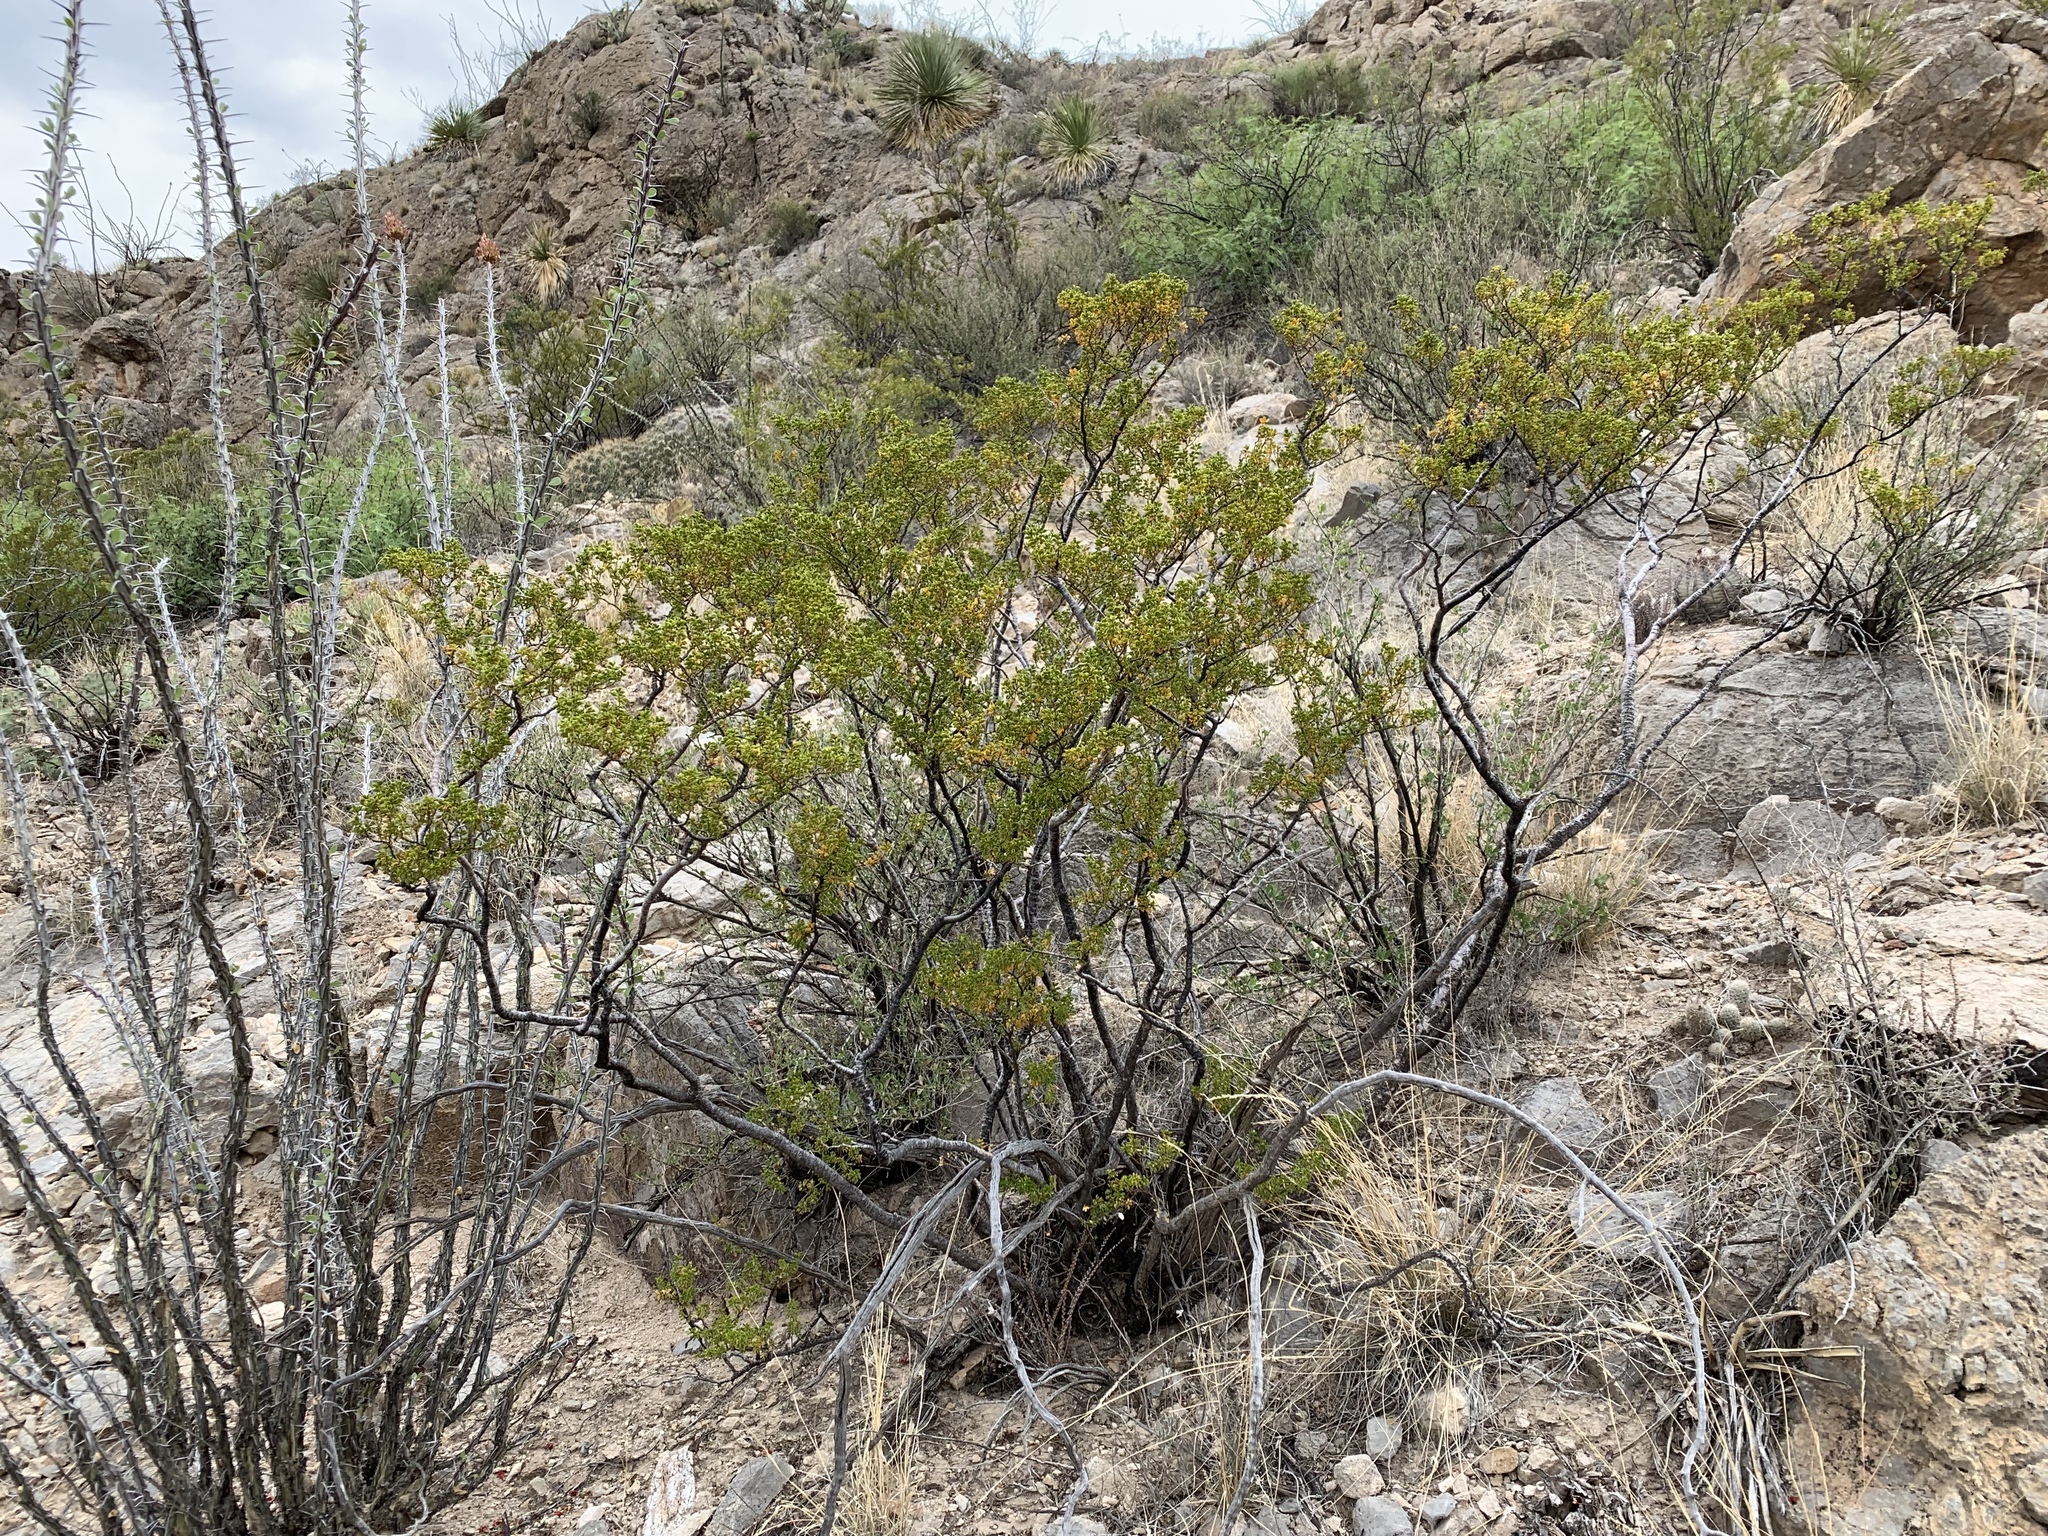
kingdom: Plantae
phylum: Tracheophyta
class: Magnoliopsida
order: Zygophyllales
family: Zygophyllaceae
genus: Larrea
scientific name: Larrea tridentata
